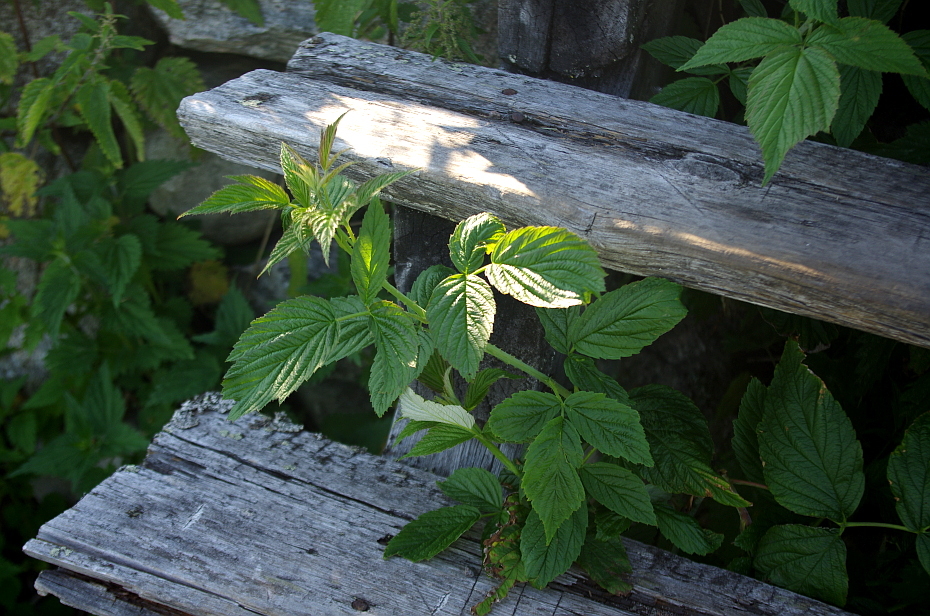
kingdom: Plantae
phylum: Tracheophyta
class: Magnoliopsida
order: Rosales
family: Rosaceae
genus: Rubus
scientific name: Rubus idaeus
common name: Raspberry
